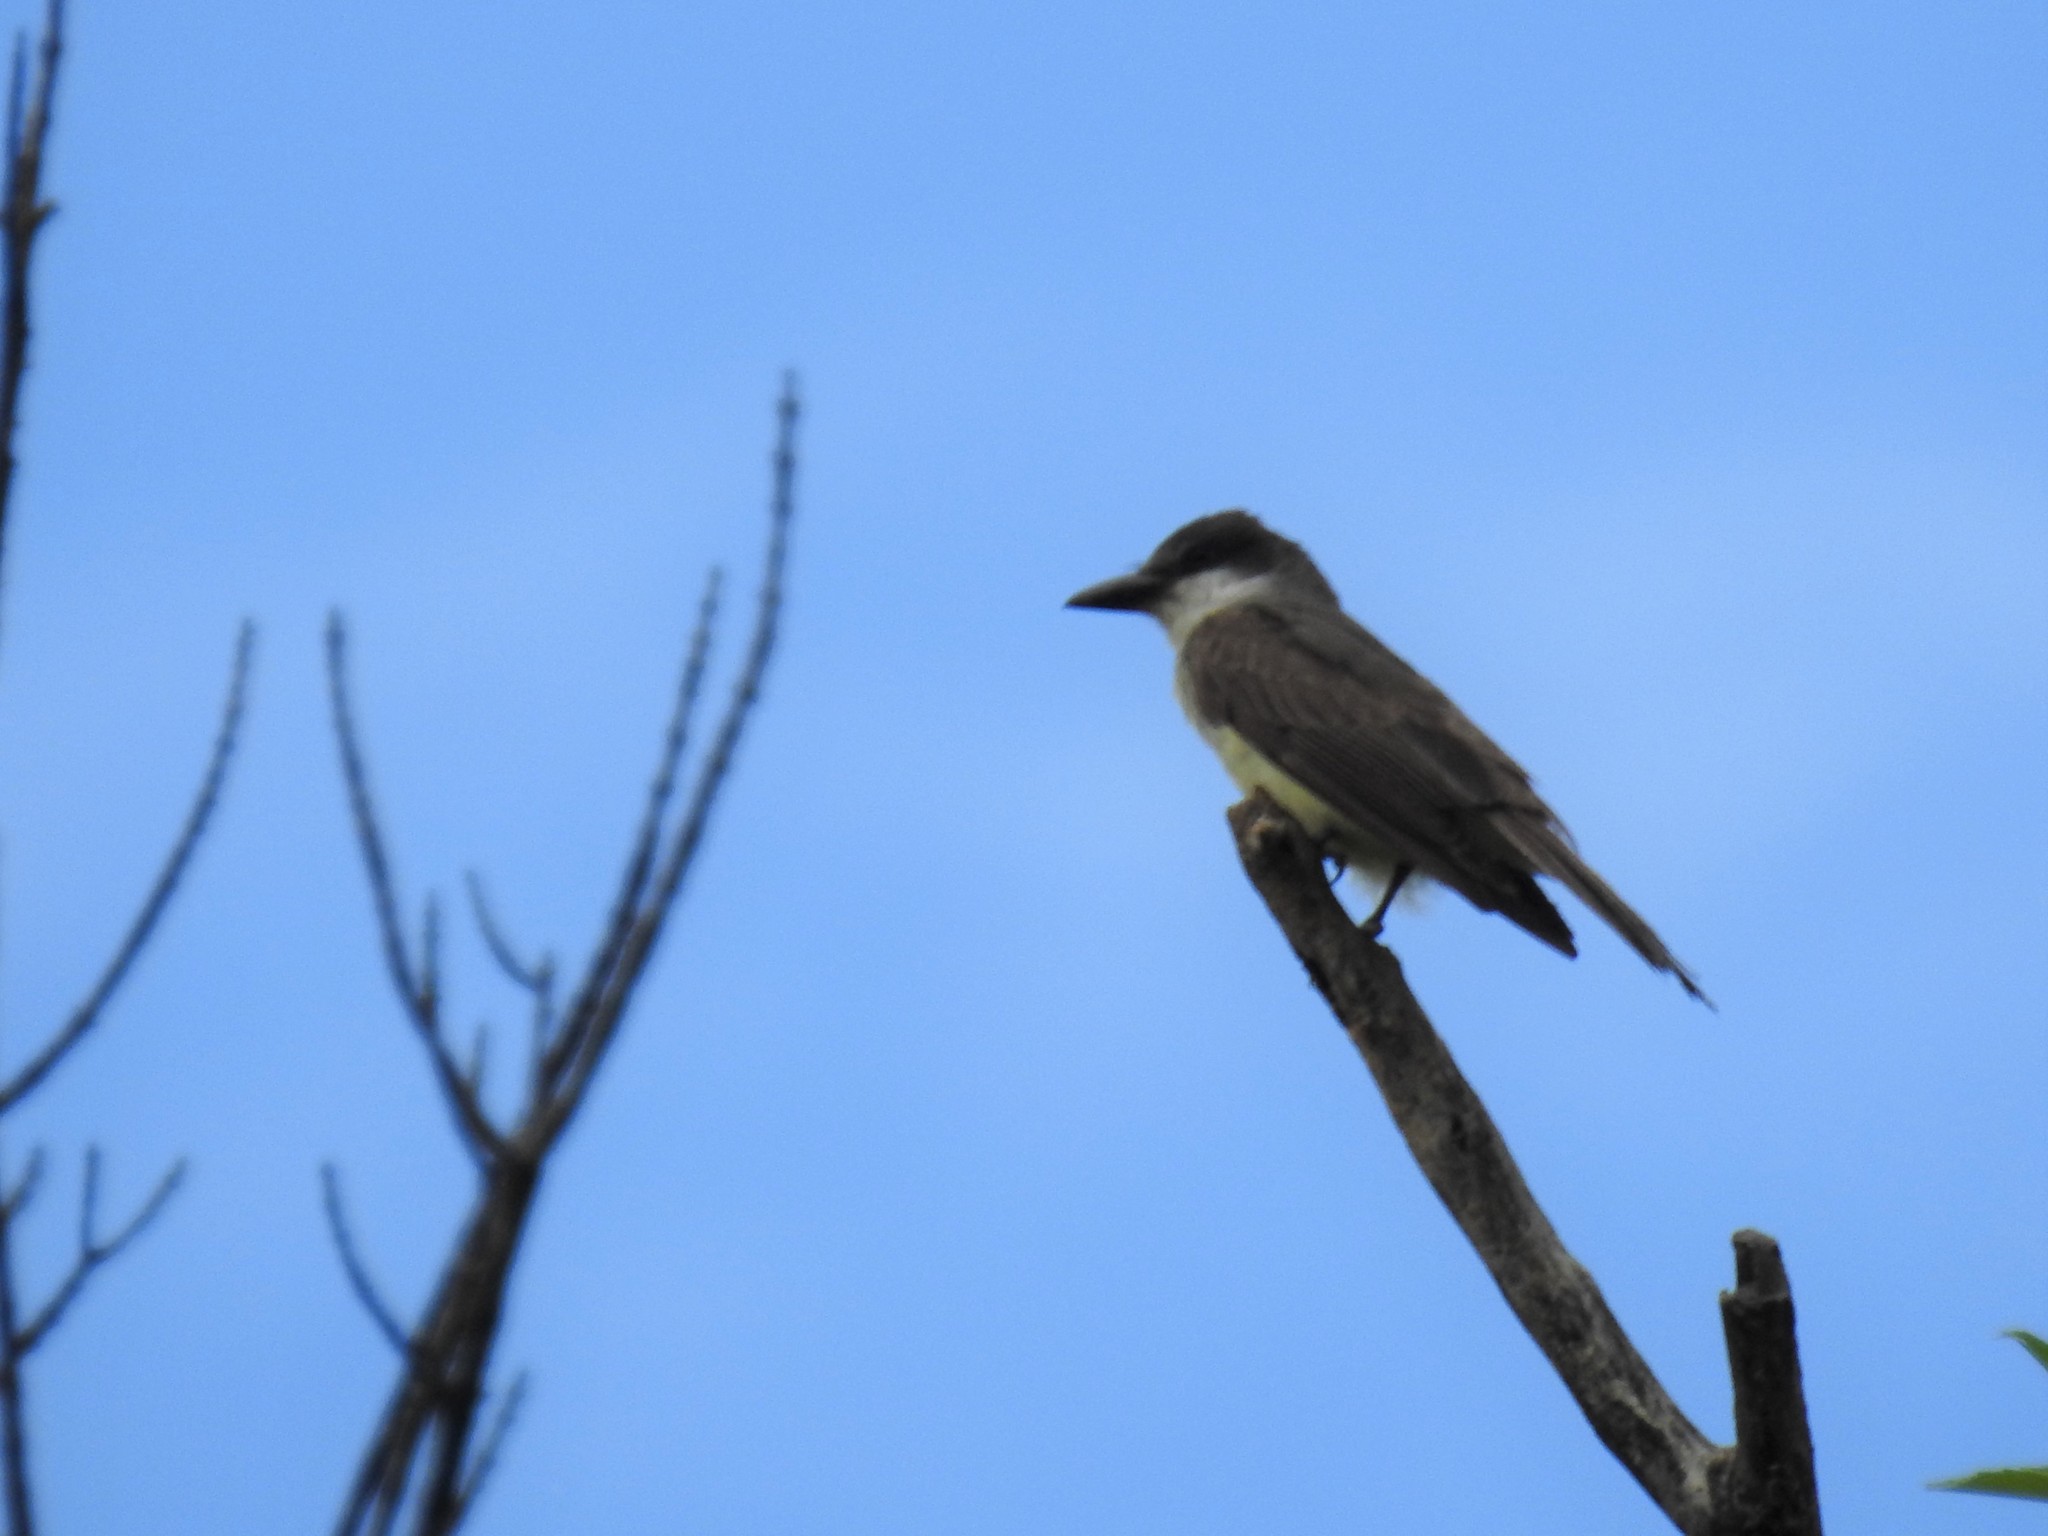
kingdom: Animalia
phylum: Chordata
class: Aves
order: Passeriformes
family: Tyrannidae
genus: Tyrannus
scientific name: Tyrannus crassirostris
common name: Thick-billed kingbird
